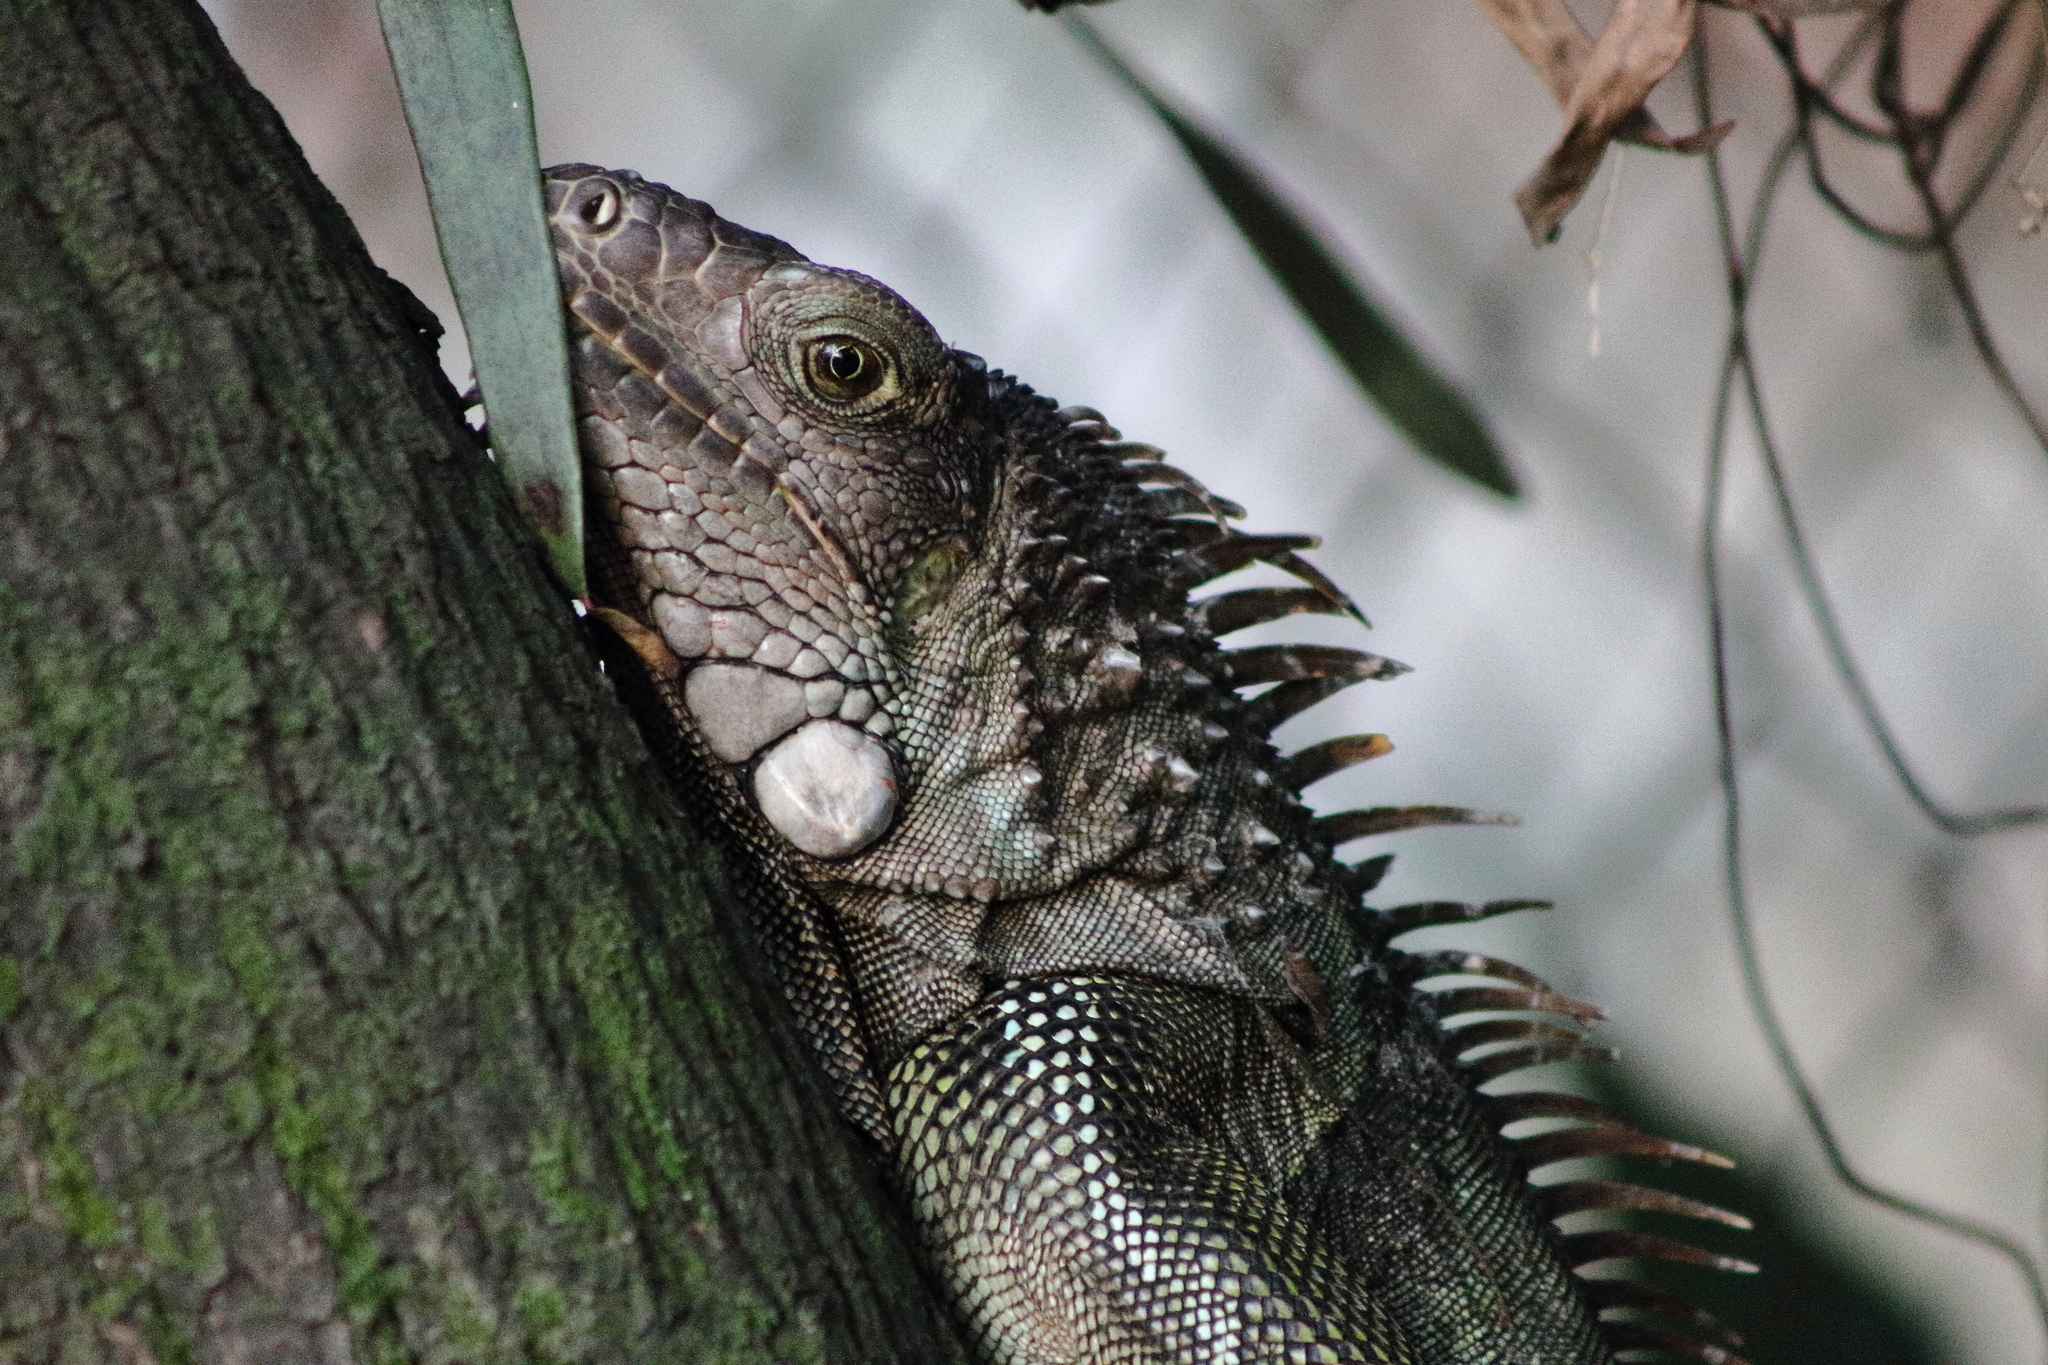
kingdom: Animalia
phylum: Chordata
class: Squamata
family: Iguanidae
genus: Iguana
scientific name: Iguana iguana
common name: Green iguana
